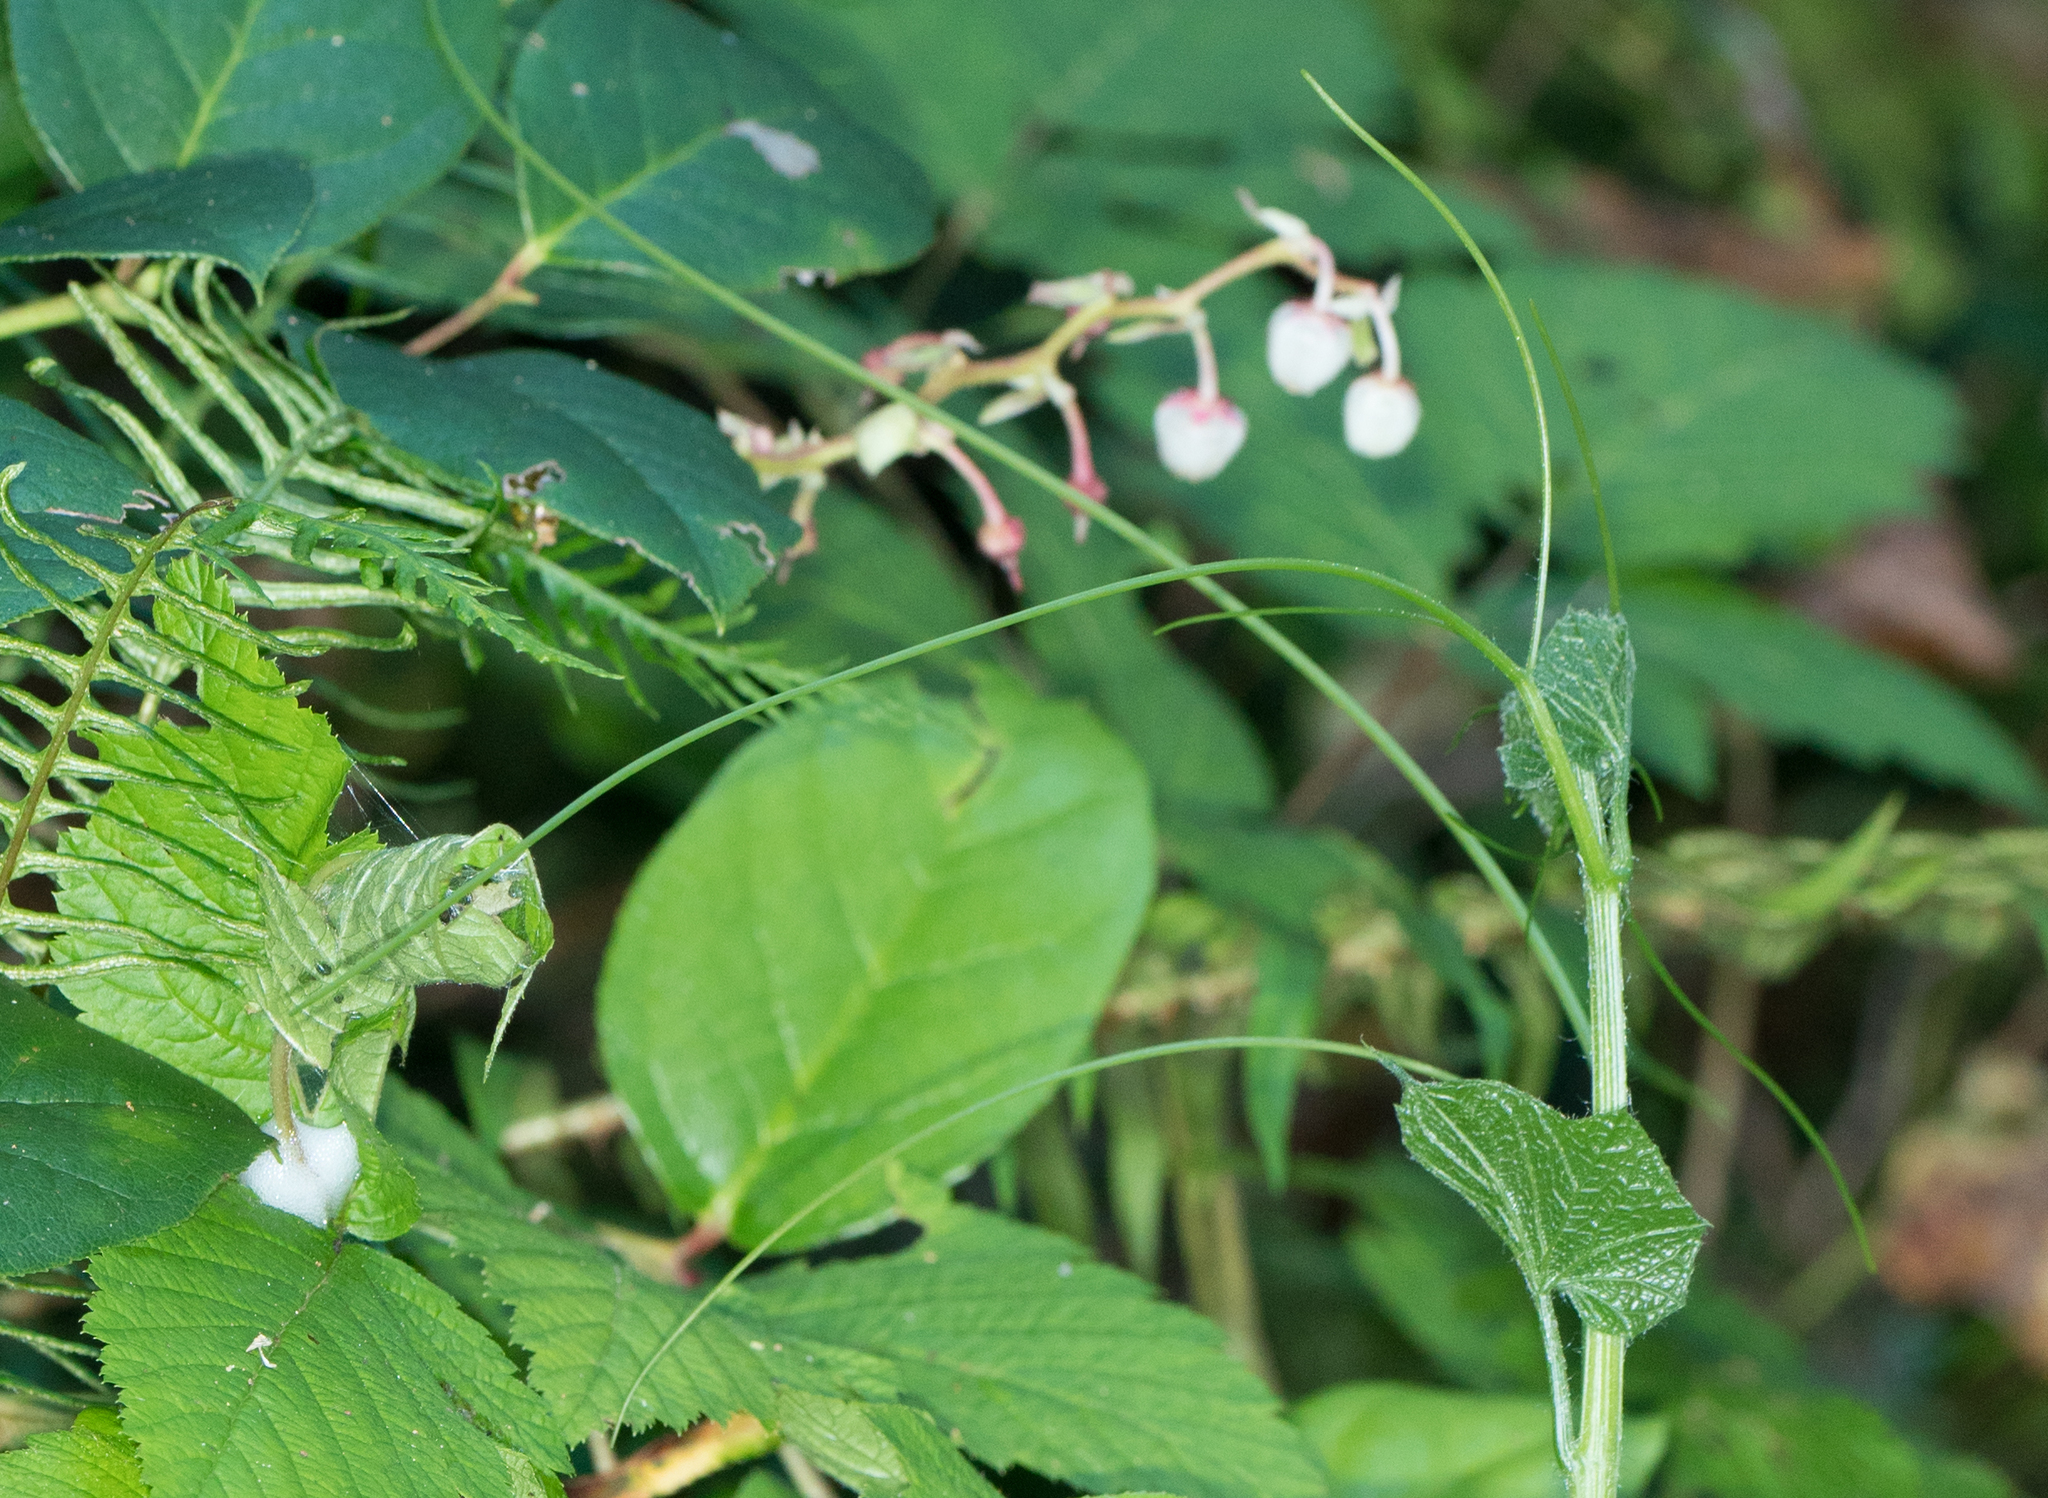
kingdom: Plantae
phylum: Tracheophyta
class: Magnoliopsida
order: Cucurbitales
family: Cucurbitaceae
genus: Marah
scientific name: Marah oregana
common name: Coastal manroot
